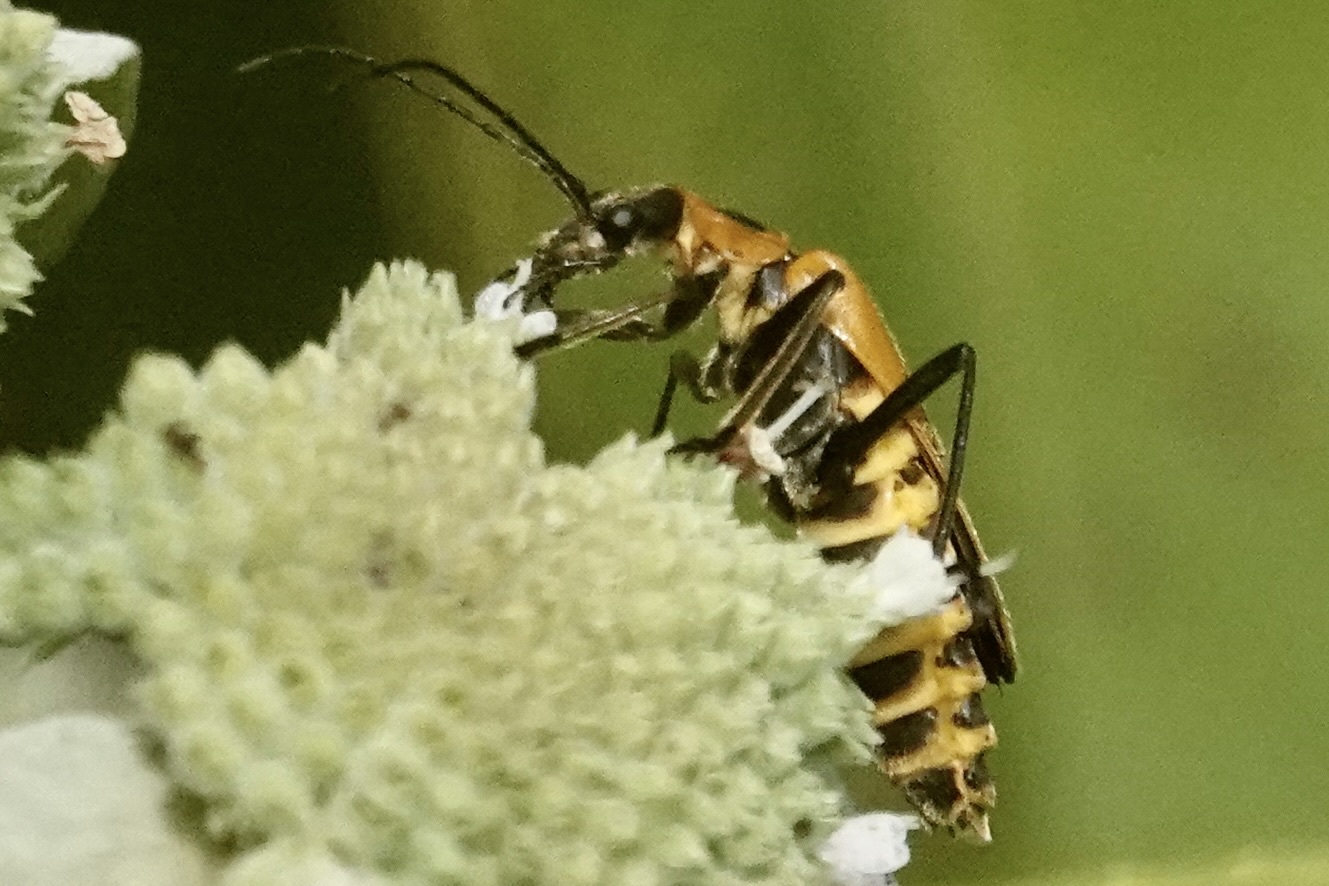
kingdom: Animalia
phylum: Arthropoda
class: Insecta
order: Coleoptera
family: Cantharidae
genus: Chauliognathus
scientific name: Chauliognathus pensylvanicus
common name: Goldenrod soldier beetle
